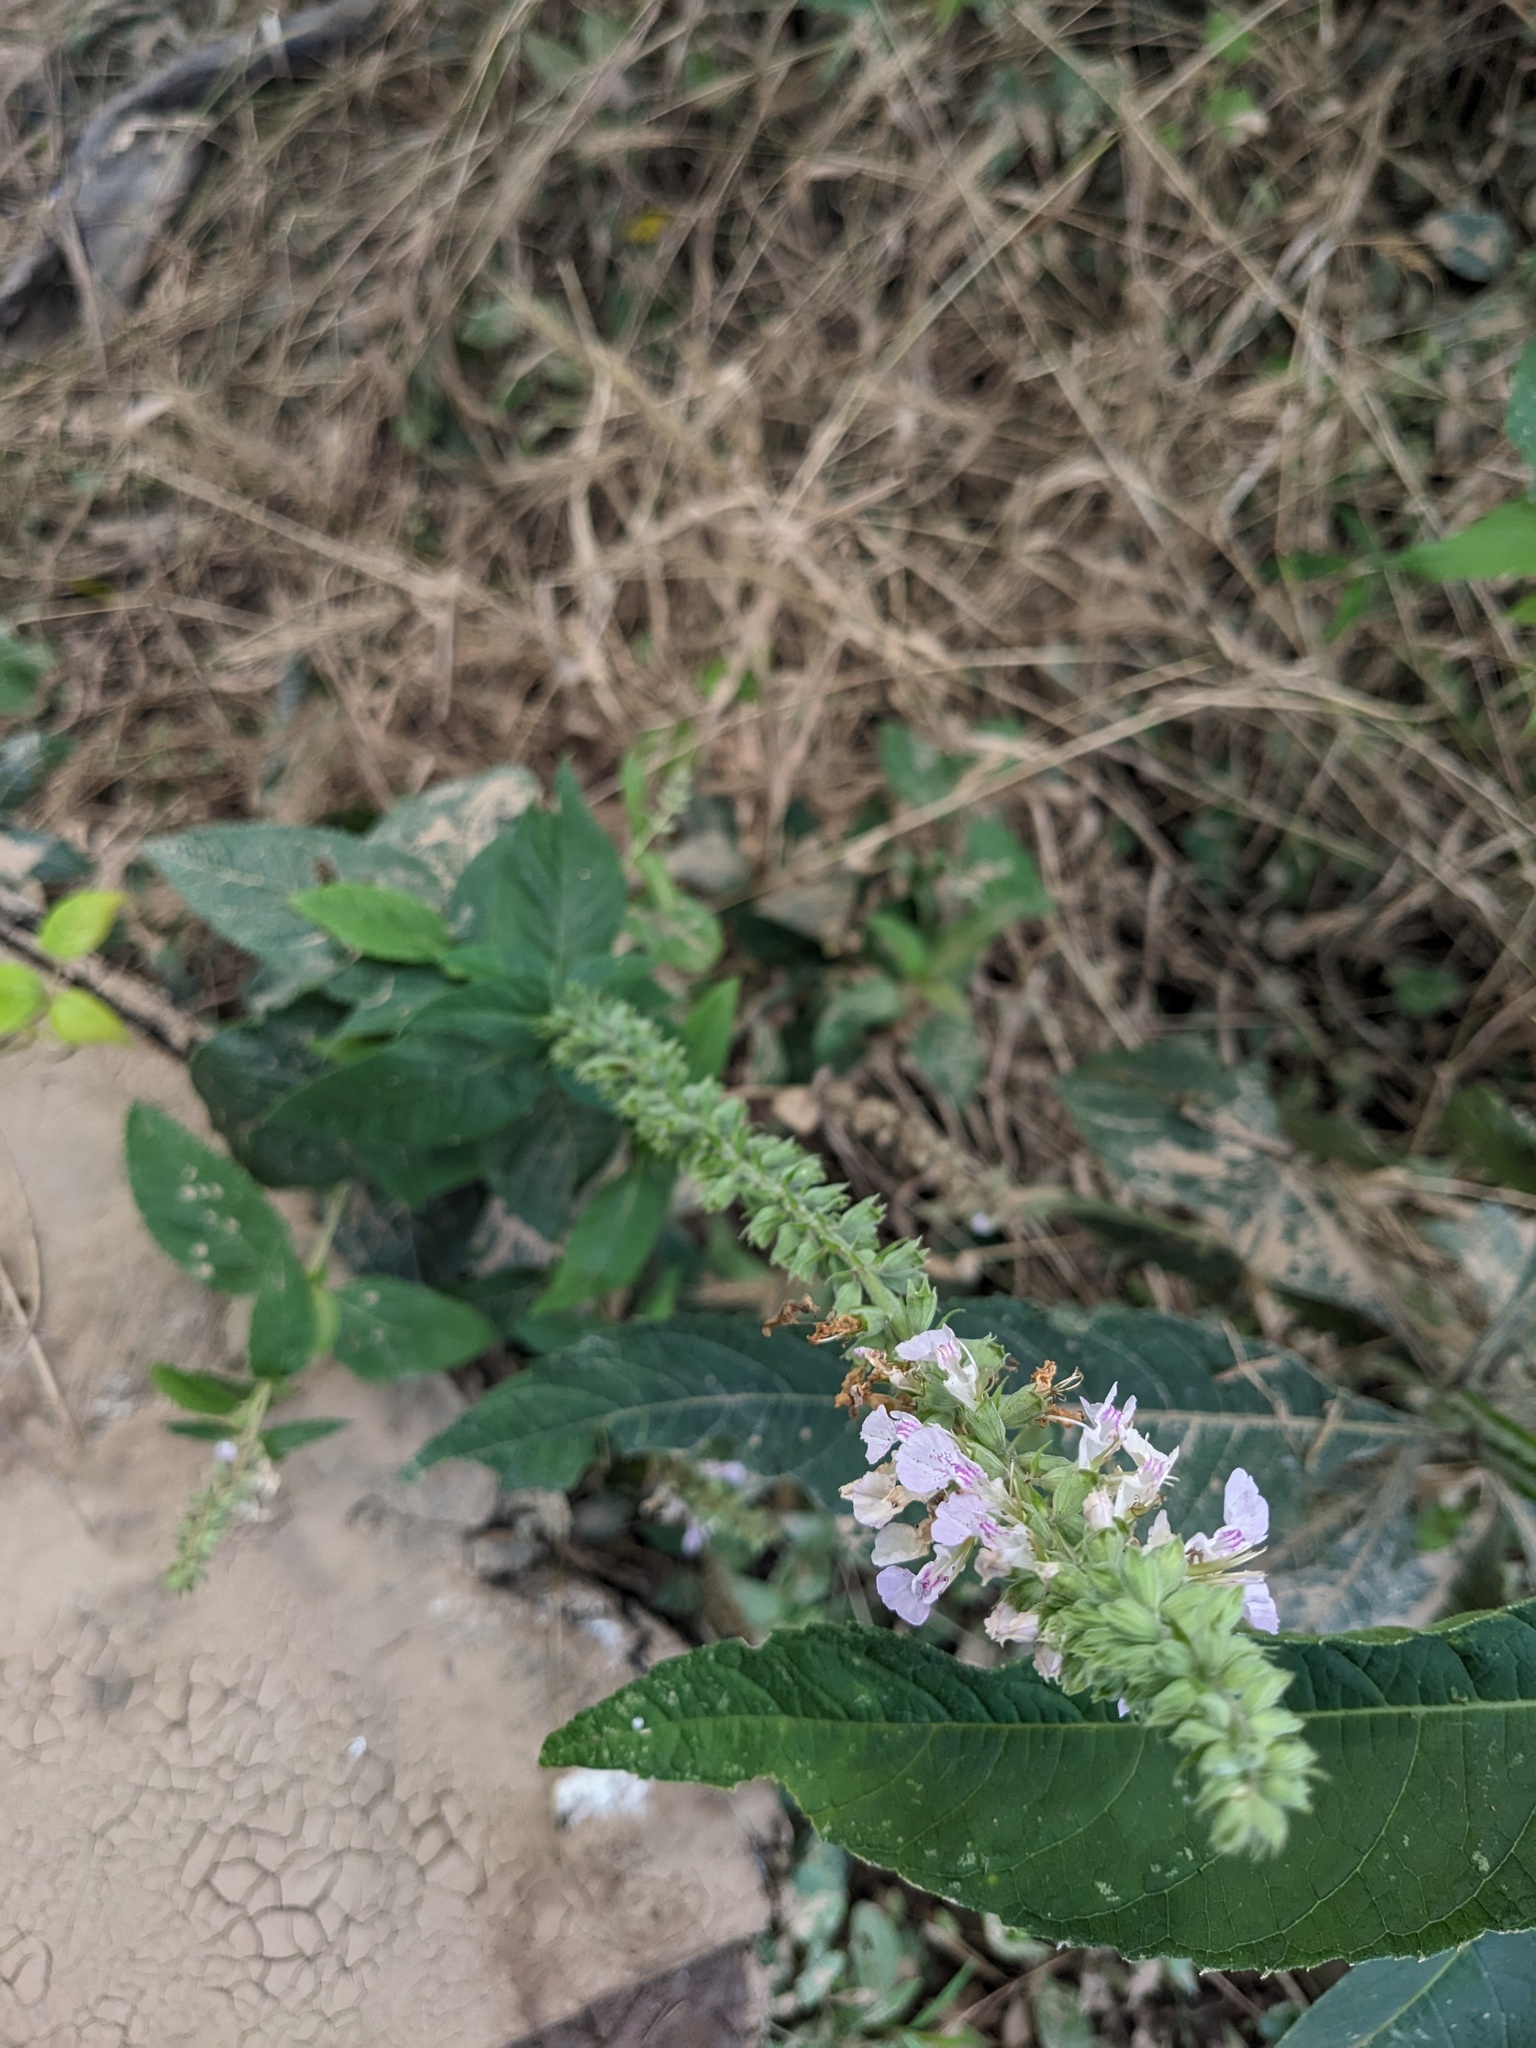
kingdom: Plantae
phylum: Tracheophyta
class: Magnoliopsida
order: Lamiales
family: Lamiaceae
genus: Teucrium
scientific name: Teucrium canadense
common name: American germander
